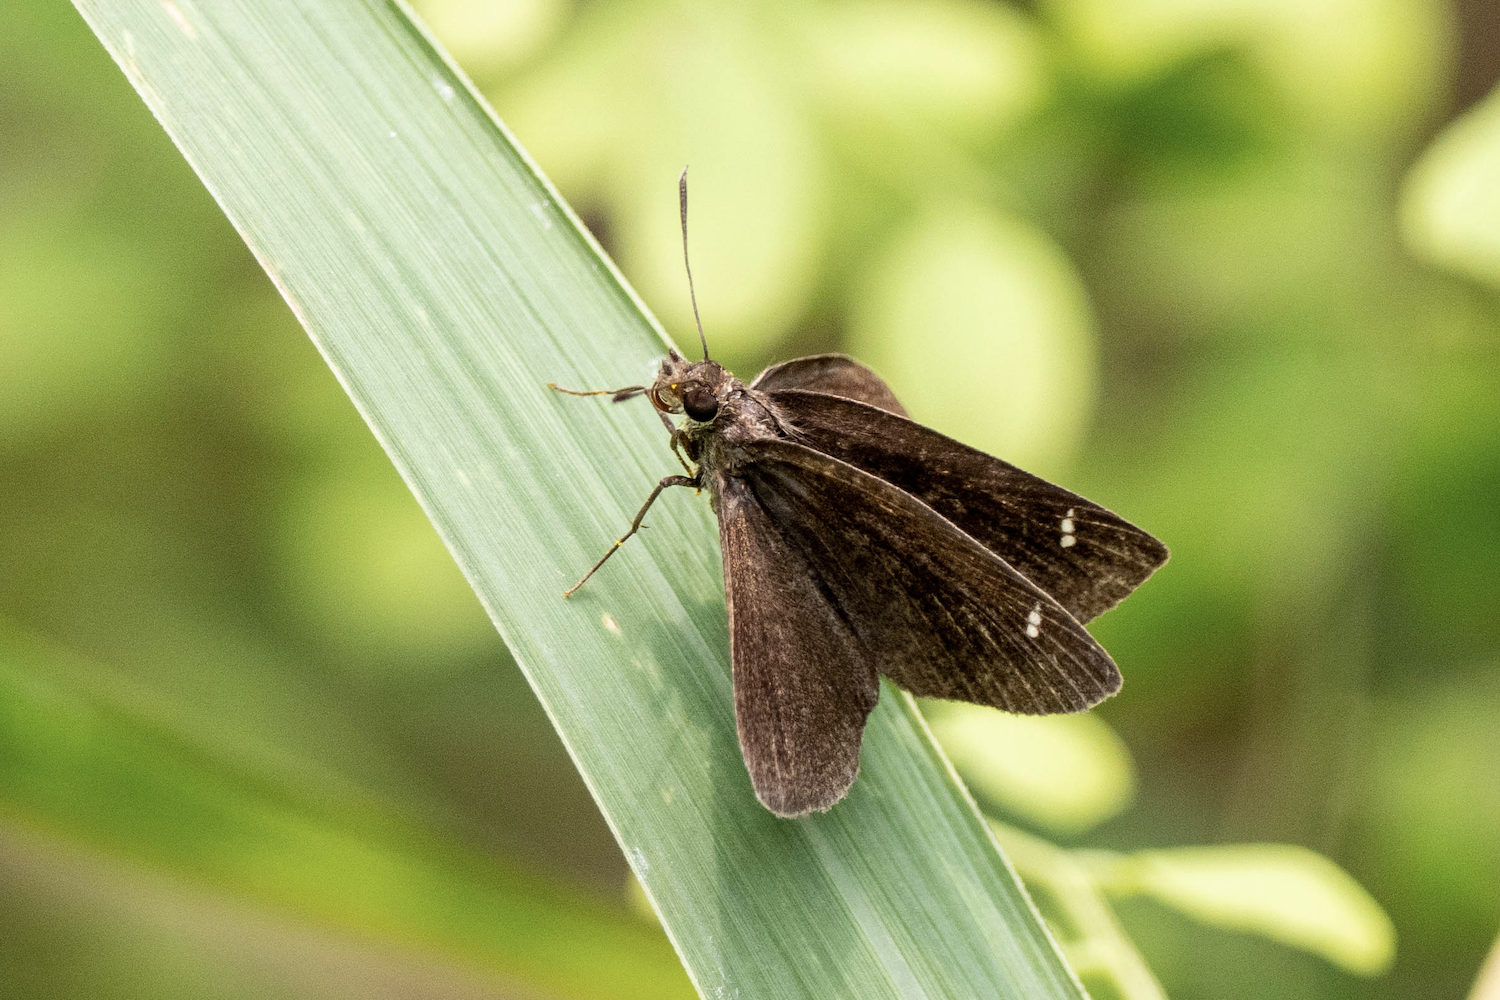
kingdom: Animalia
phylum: Arthropoda
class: Insecta
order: Lepidoptera
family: Hesperiidae
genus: Astictopterus
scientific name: Astictopterus jama
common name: Forest hopper
